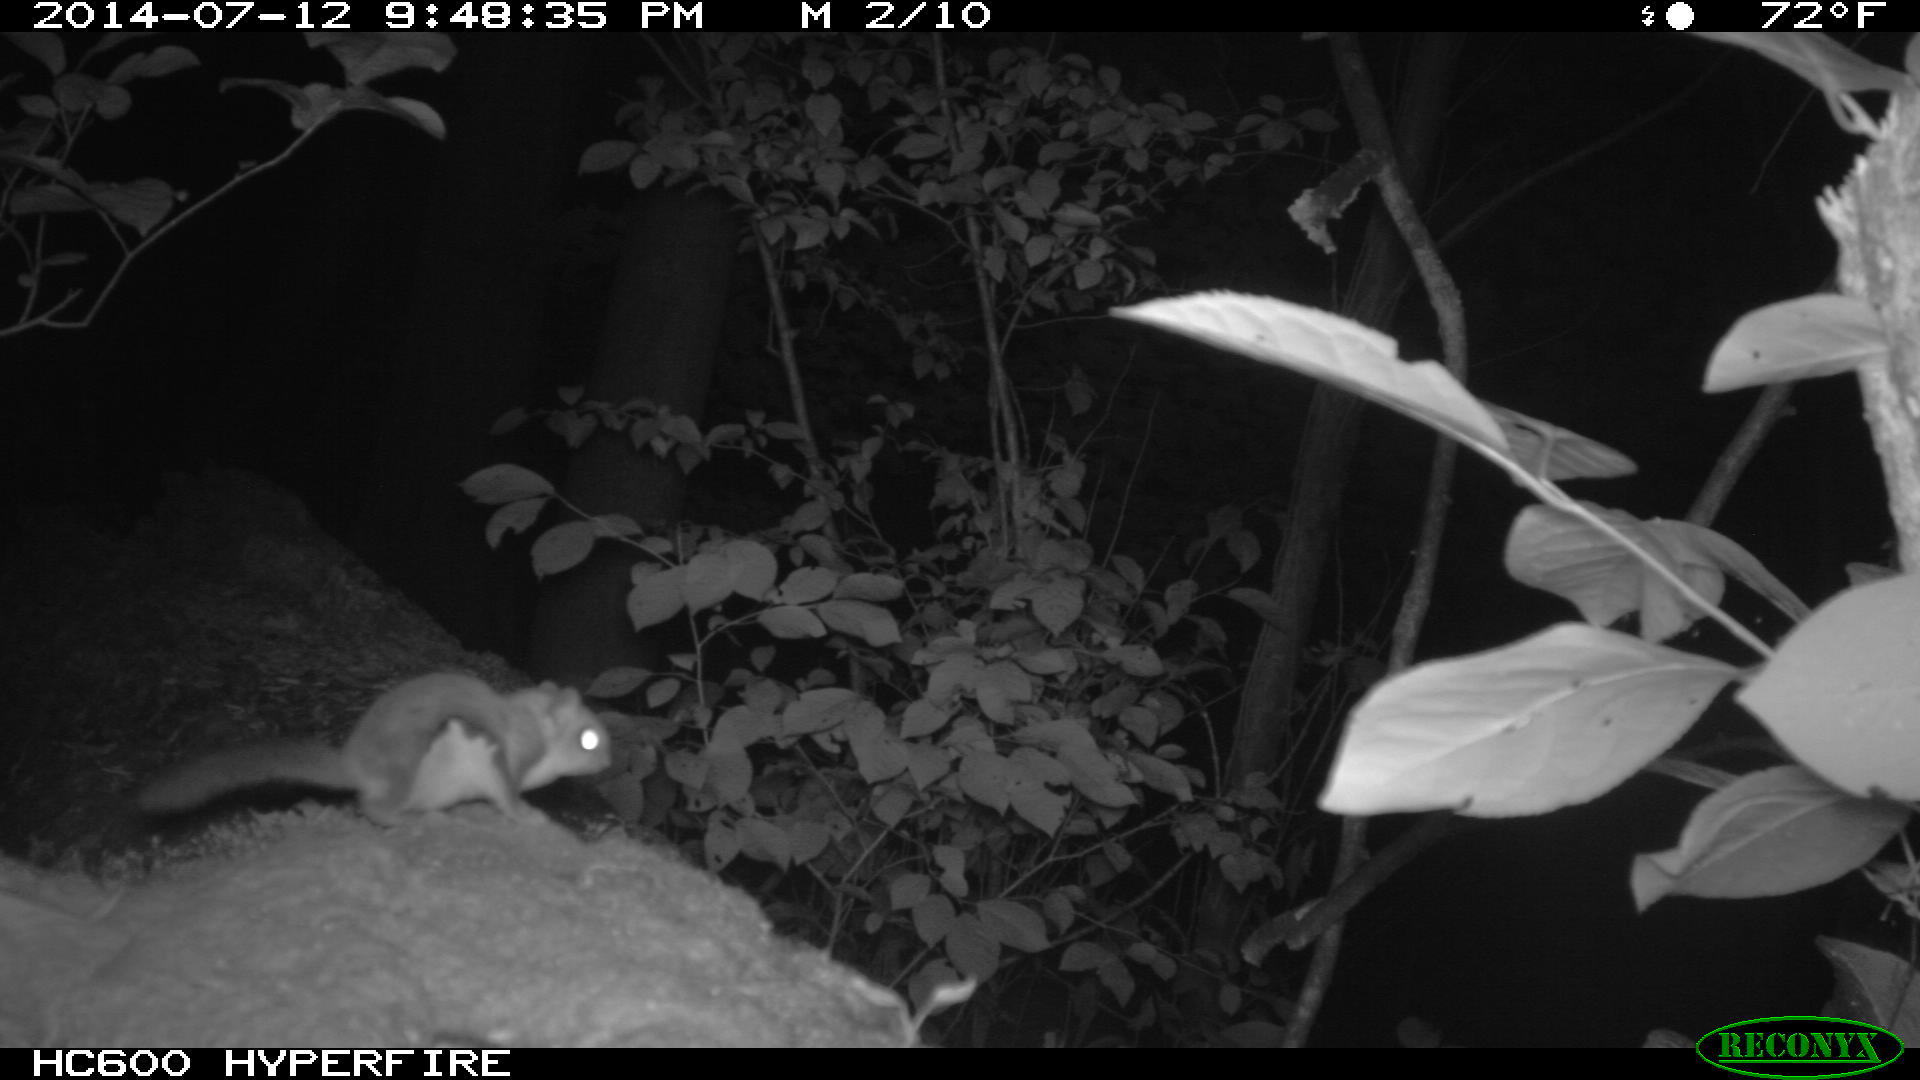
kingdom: Animalia
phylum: Chordata
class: Mammalia
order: Rodentia
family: Sciuridae
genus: Glaucomys
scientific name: Glaucomys volans
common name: Southern flying squirrel
